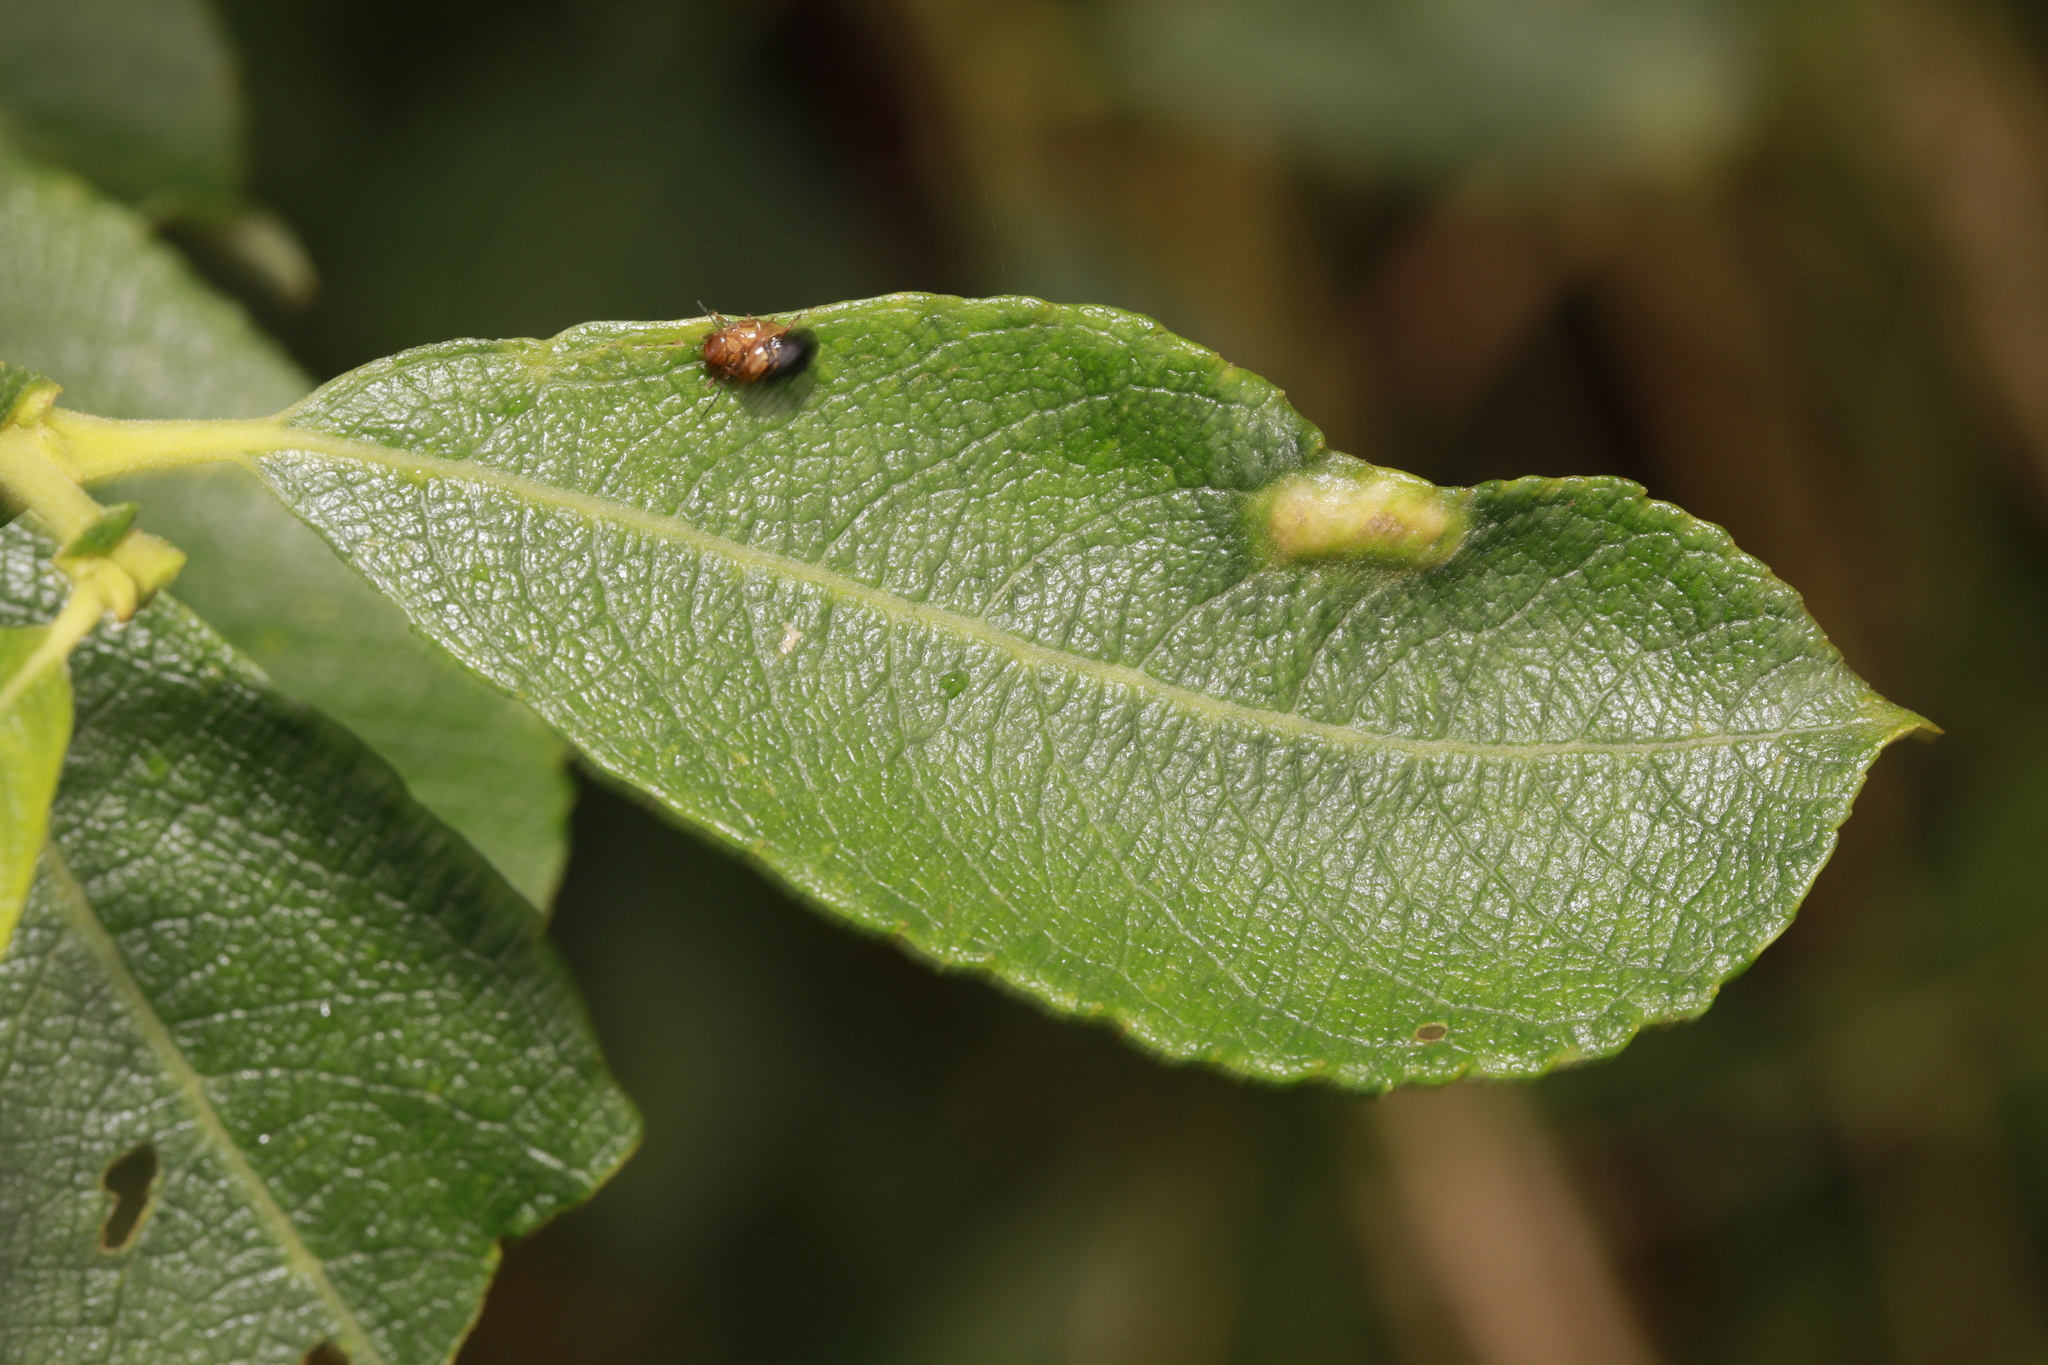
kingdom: Animalia
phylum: Arthropoda
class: Insecta
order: Coleoptera
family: Chrysomelidae
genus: Cryptocephalus
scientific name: Cryptocephalus pusillus
